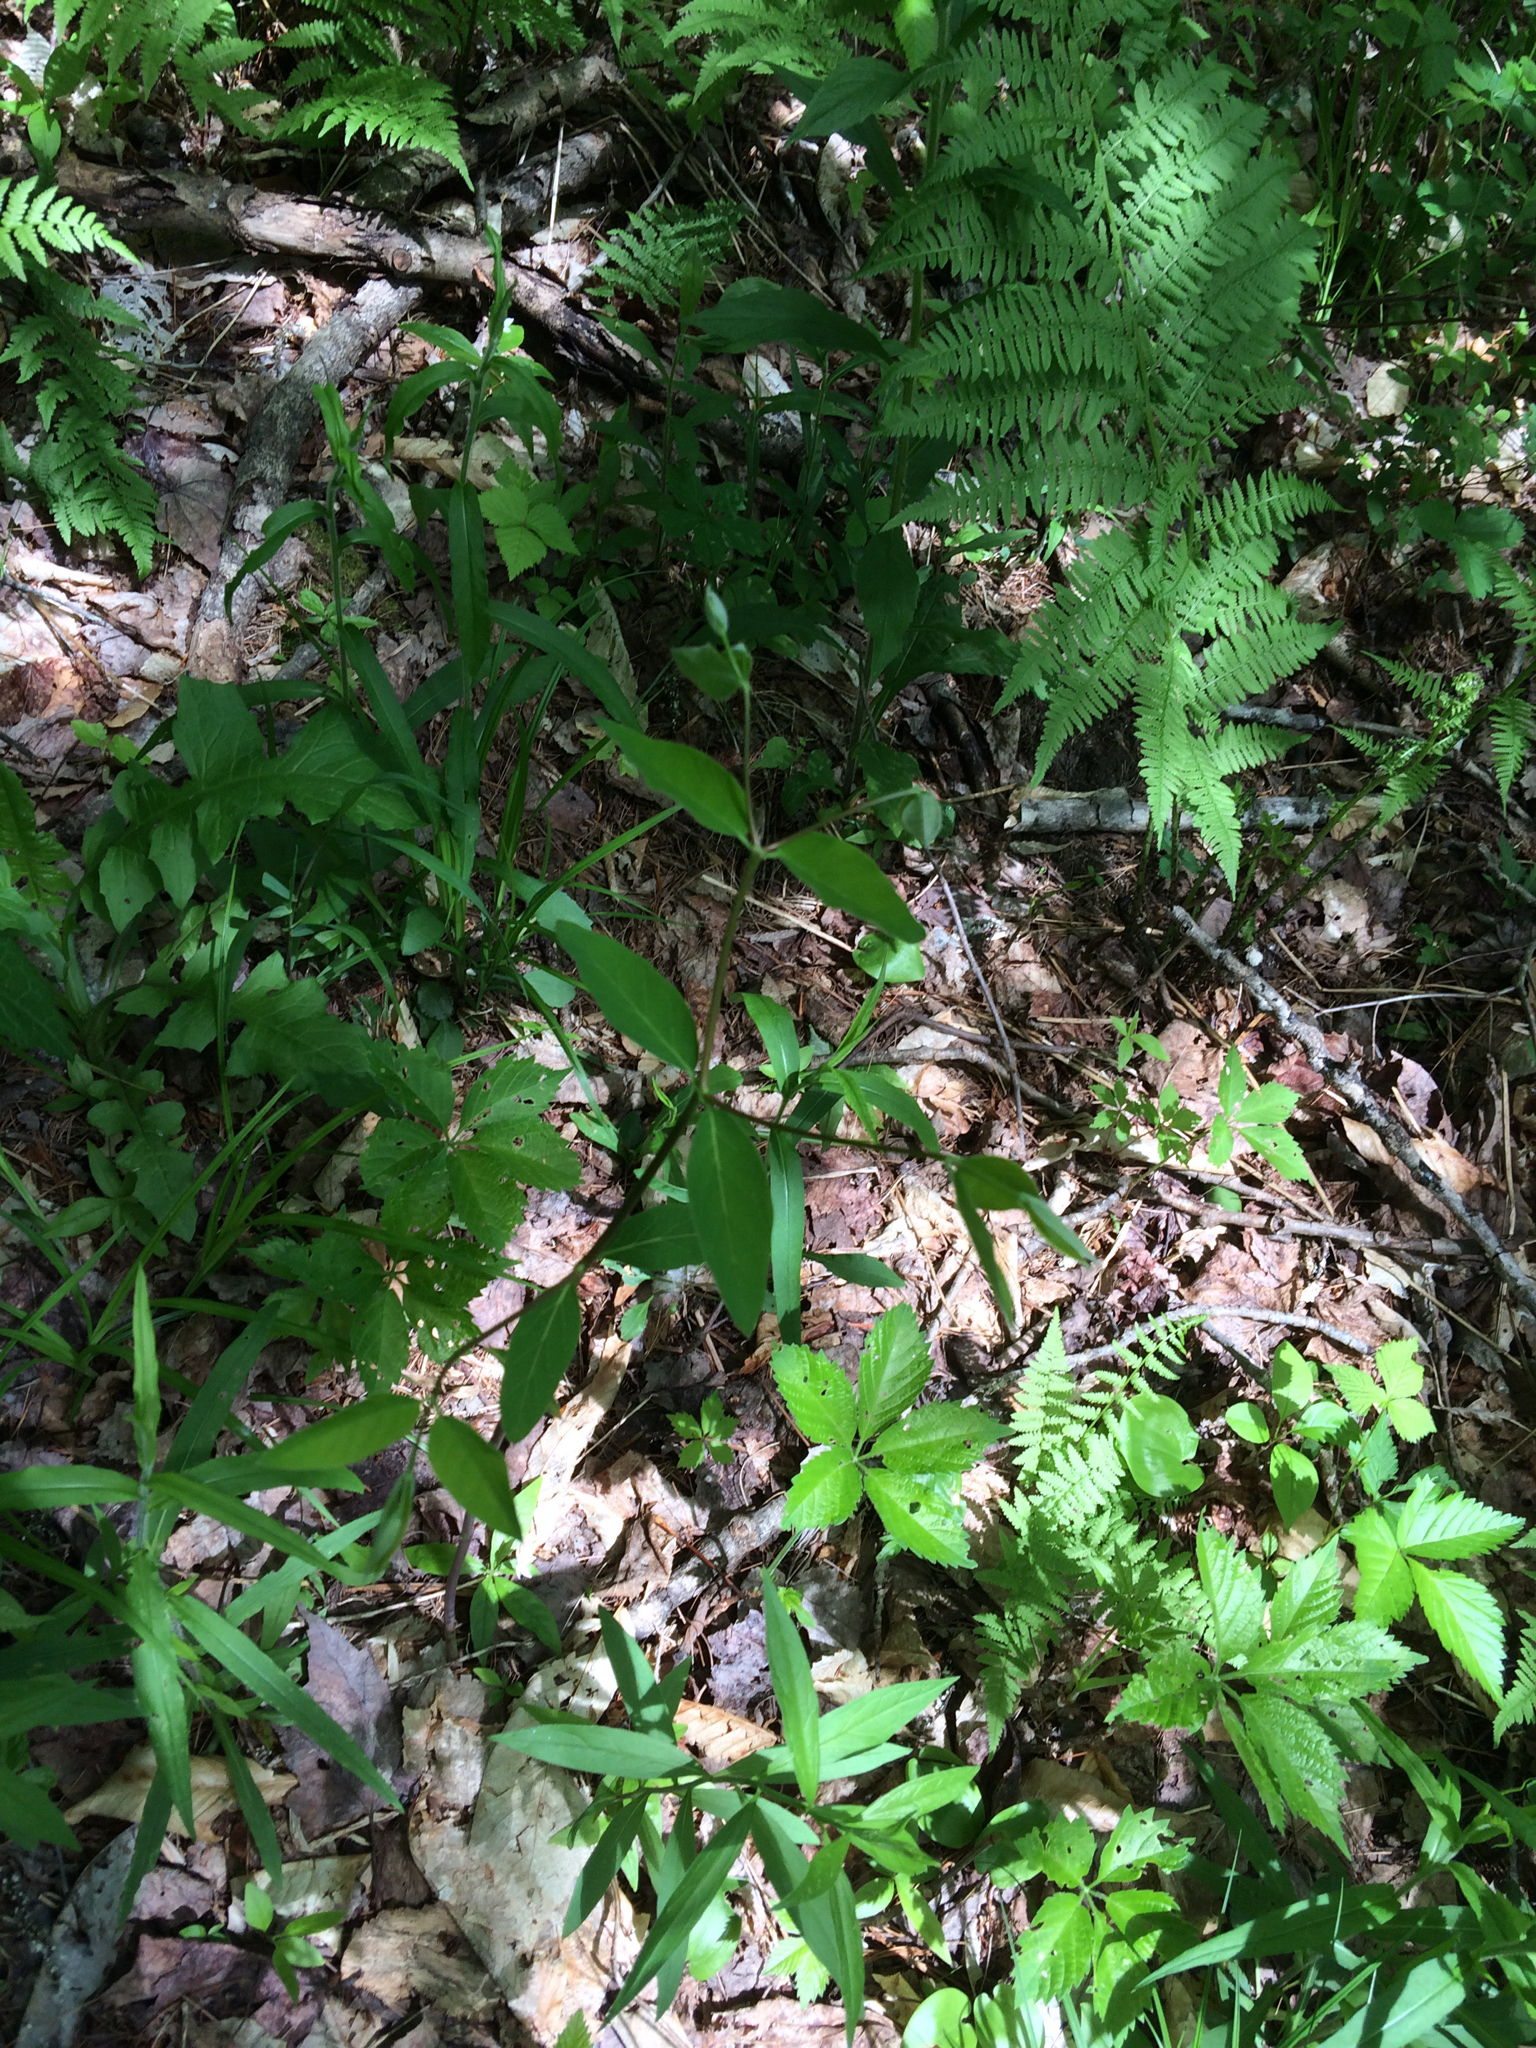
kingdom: Plantae
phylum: Tracheophyta
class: Magnoliopsida
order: Gentianales
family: Apocynaceae
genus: Apocynum
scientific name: Apocynum androsaemifolium
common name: Spreading dogbane
